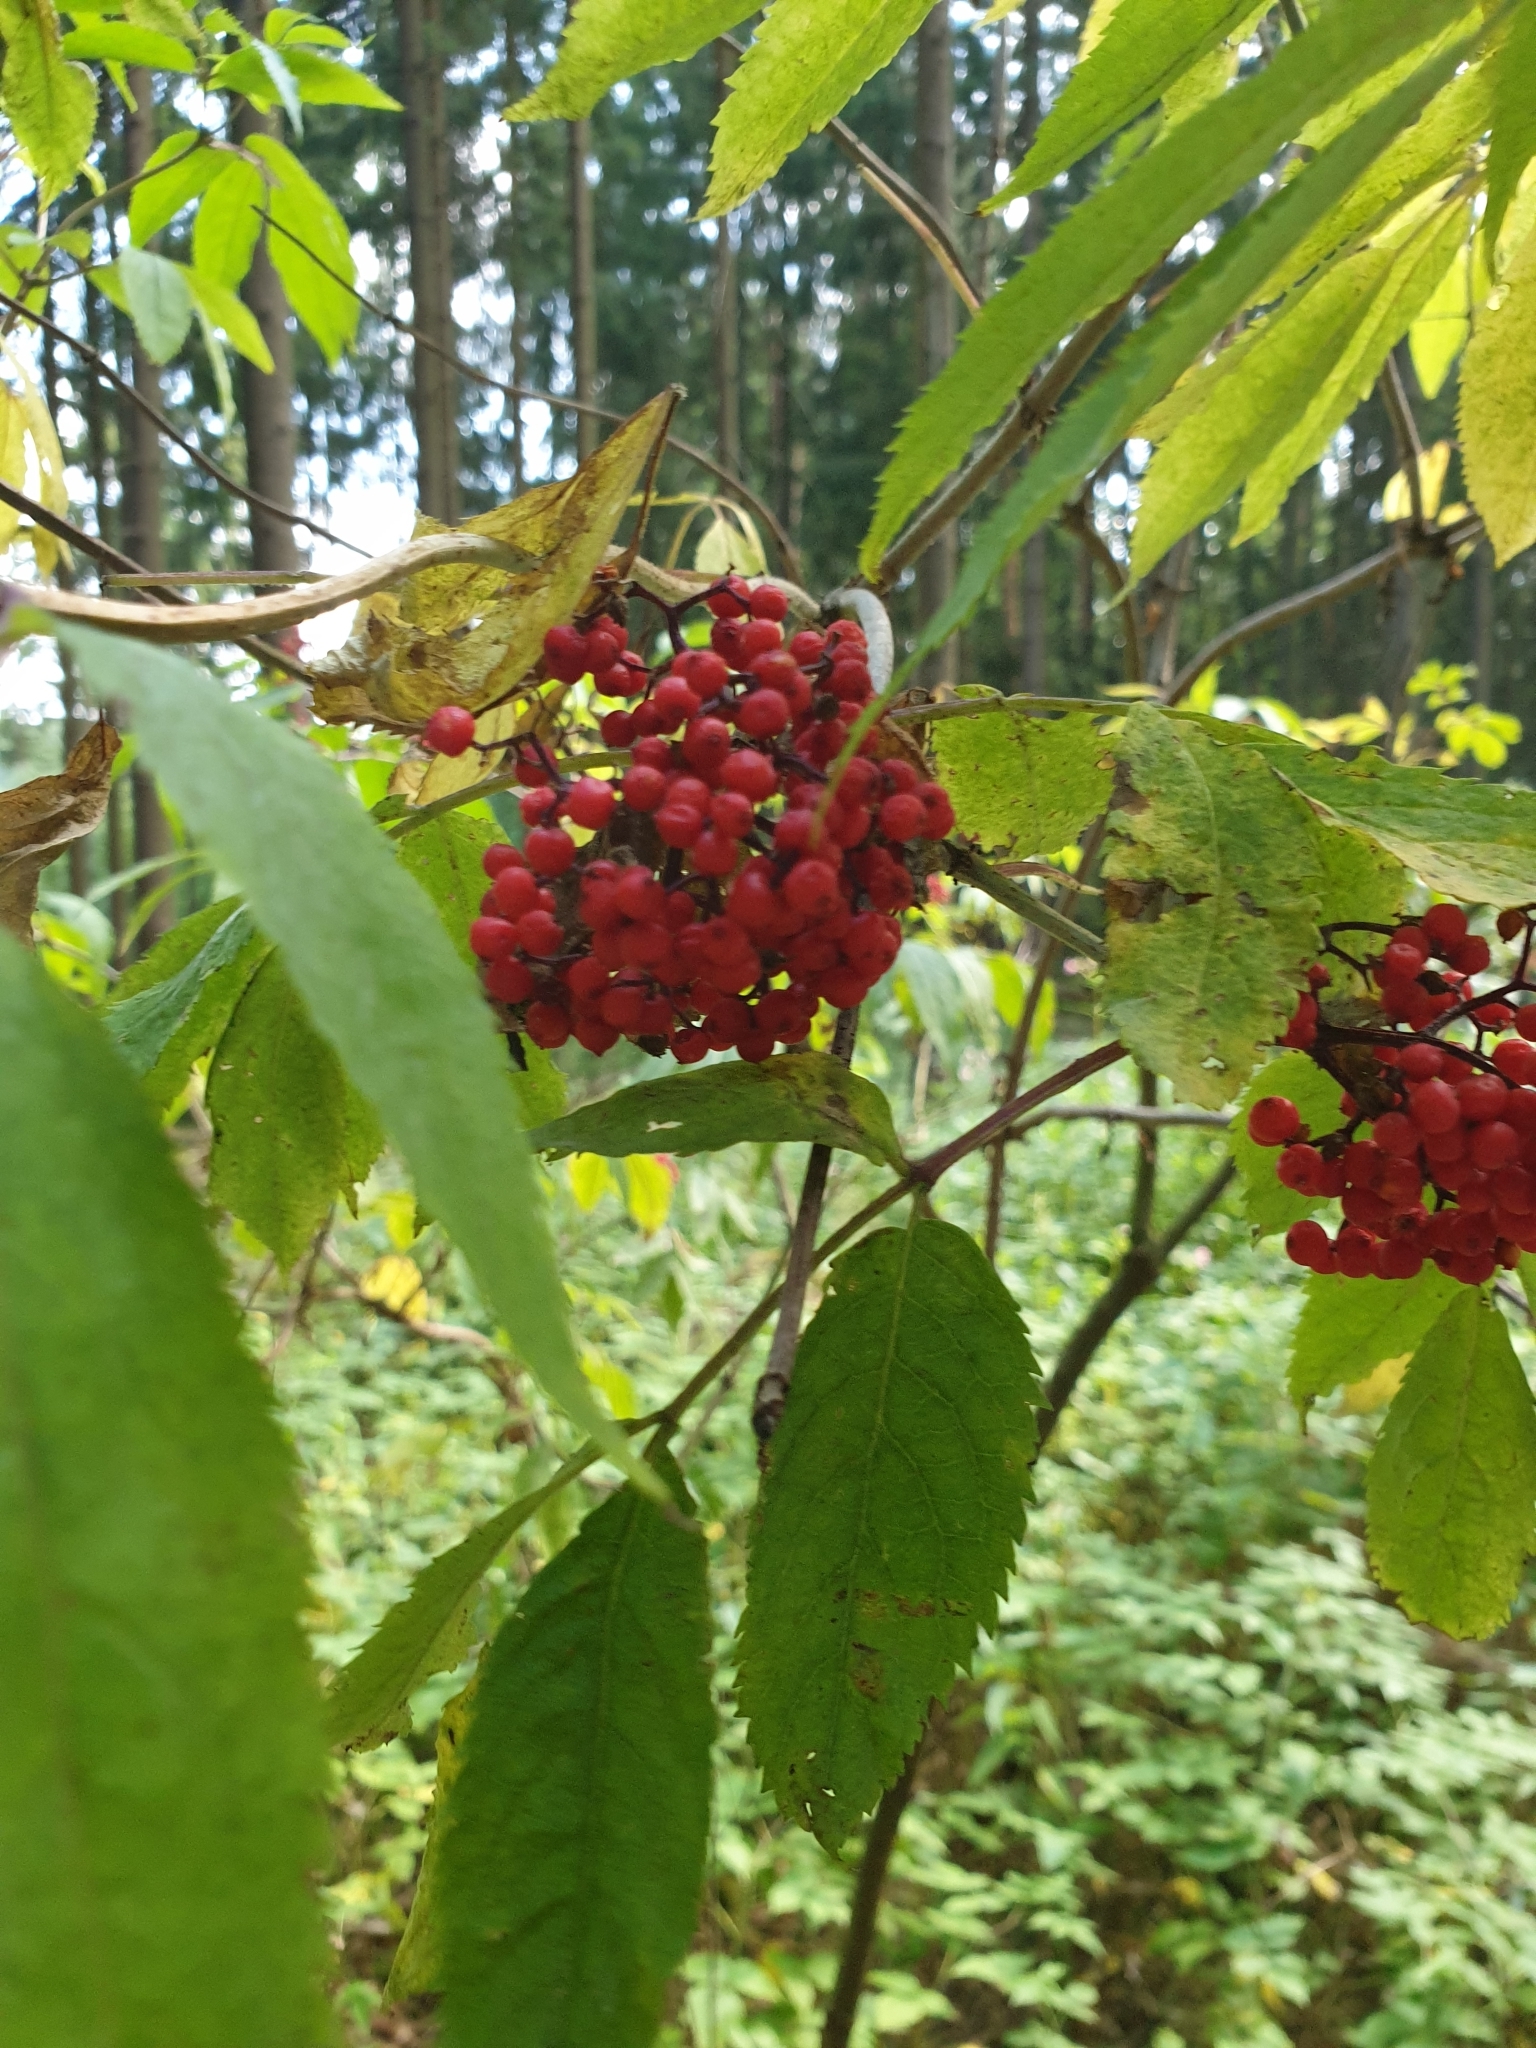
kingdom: Plantae
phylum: Tracheophyta
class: Magnoliopsida
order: Dipsacales
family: Viburnaceae
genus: Sambucus
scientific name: Sambucus racemosa
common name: Red-berried elder
